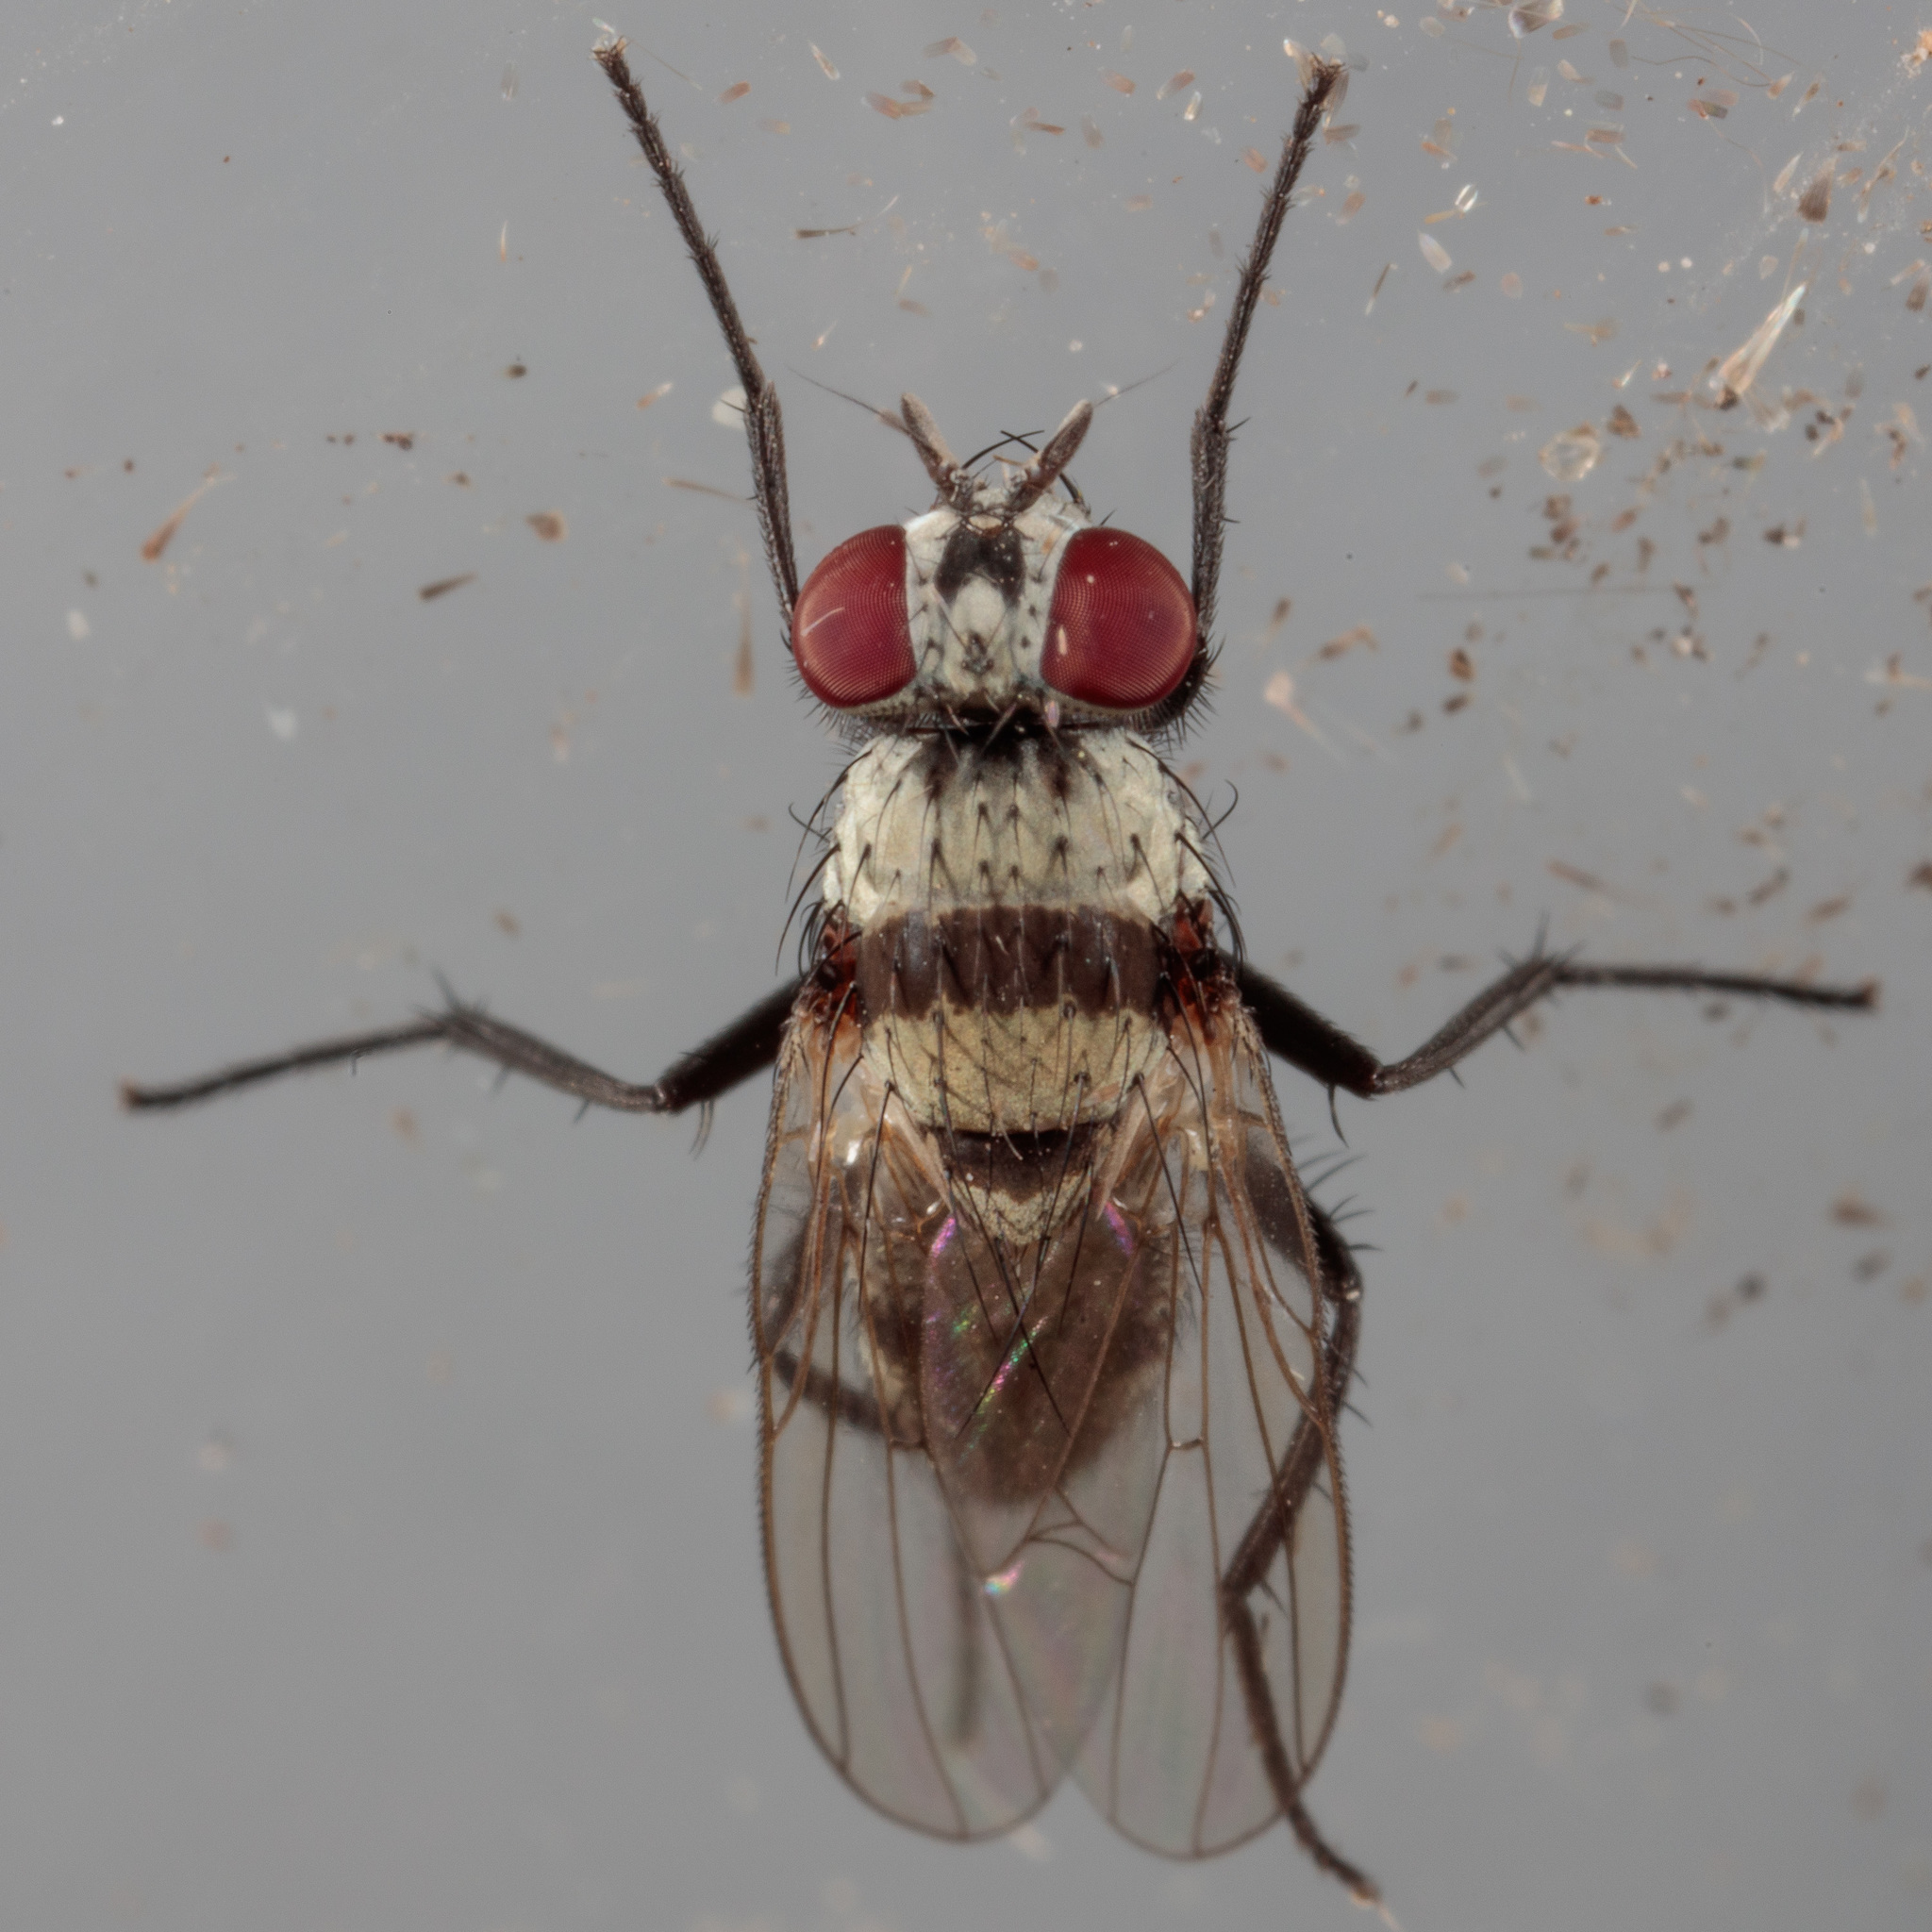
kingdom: Animalia
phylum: Arthropoda
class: Insecta
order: Diptera
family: Anthomyiidae
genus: Anthomyia
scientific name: Anthomyia illocata
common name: Fly
